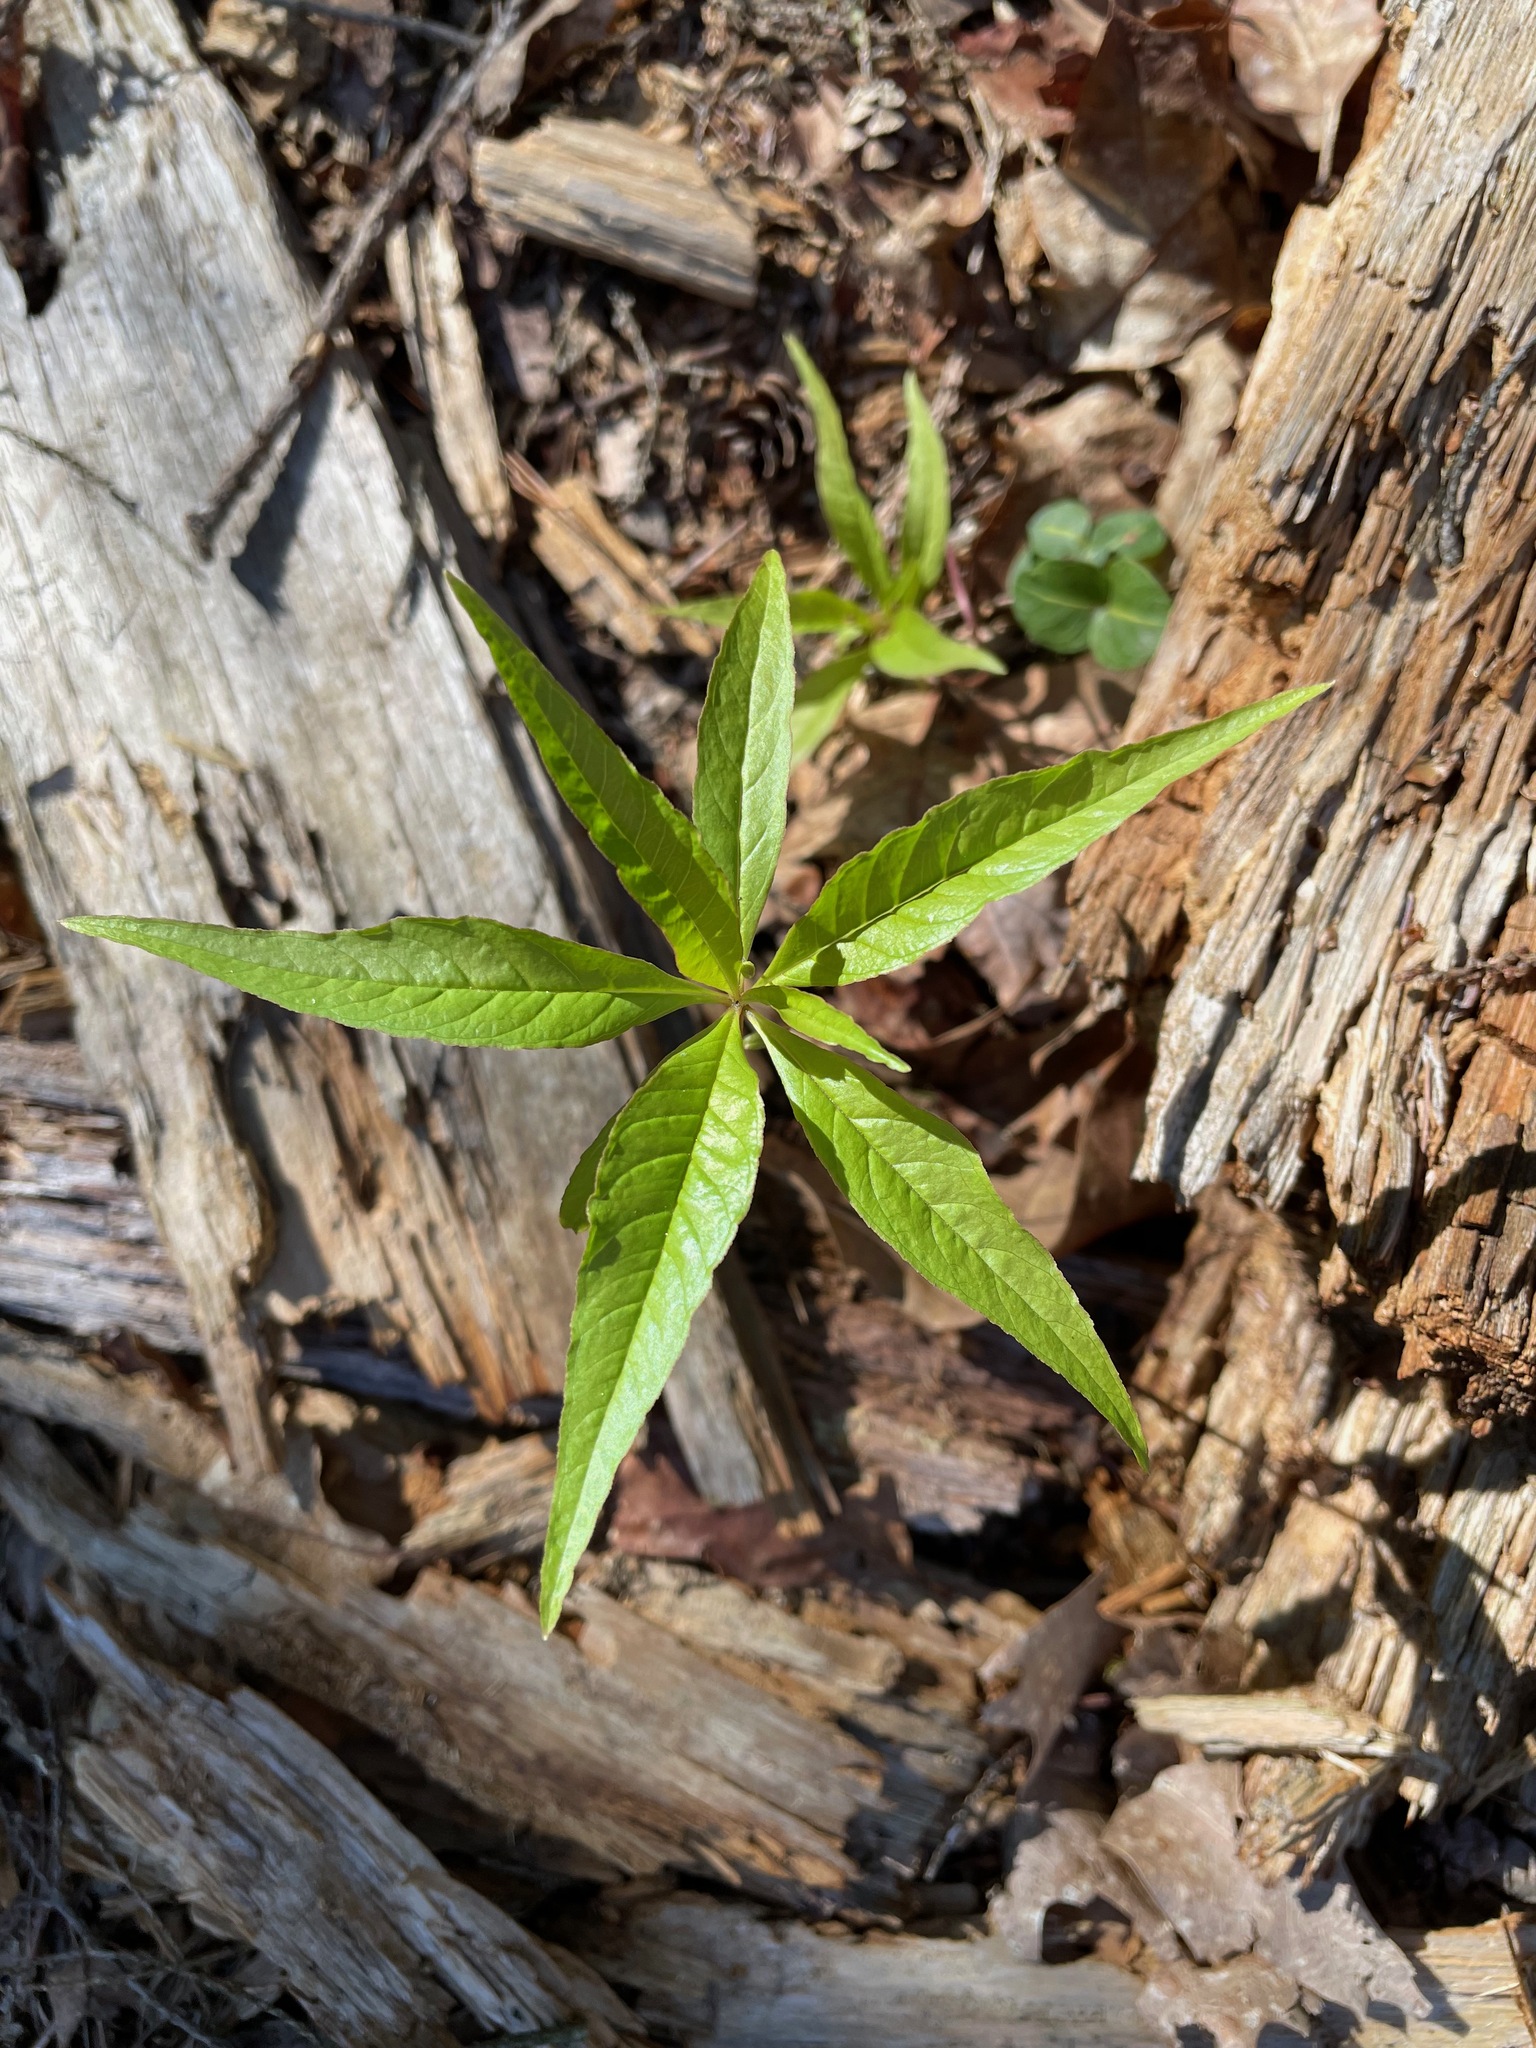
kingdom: Plantae
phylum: Tracheophyta
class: Magnoliopsida
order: Ericales
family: Primulaceae
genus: Lysimachia
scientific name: Lysimachia borealis
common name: American starflower
